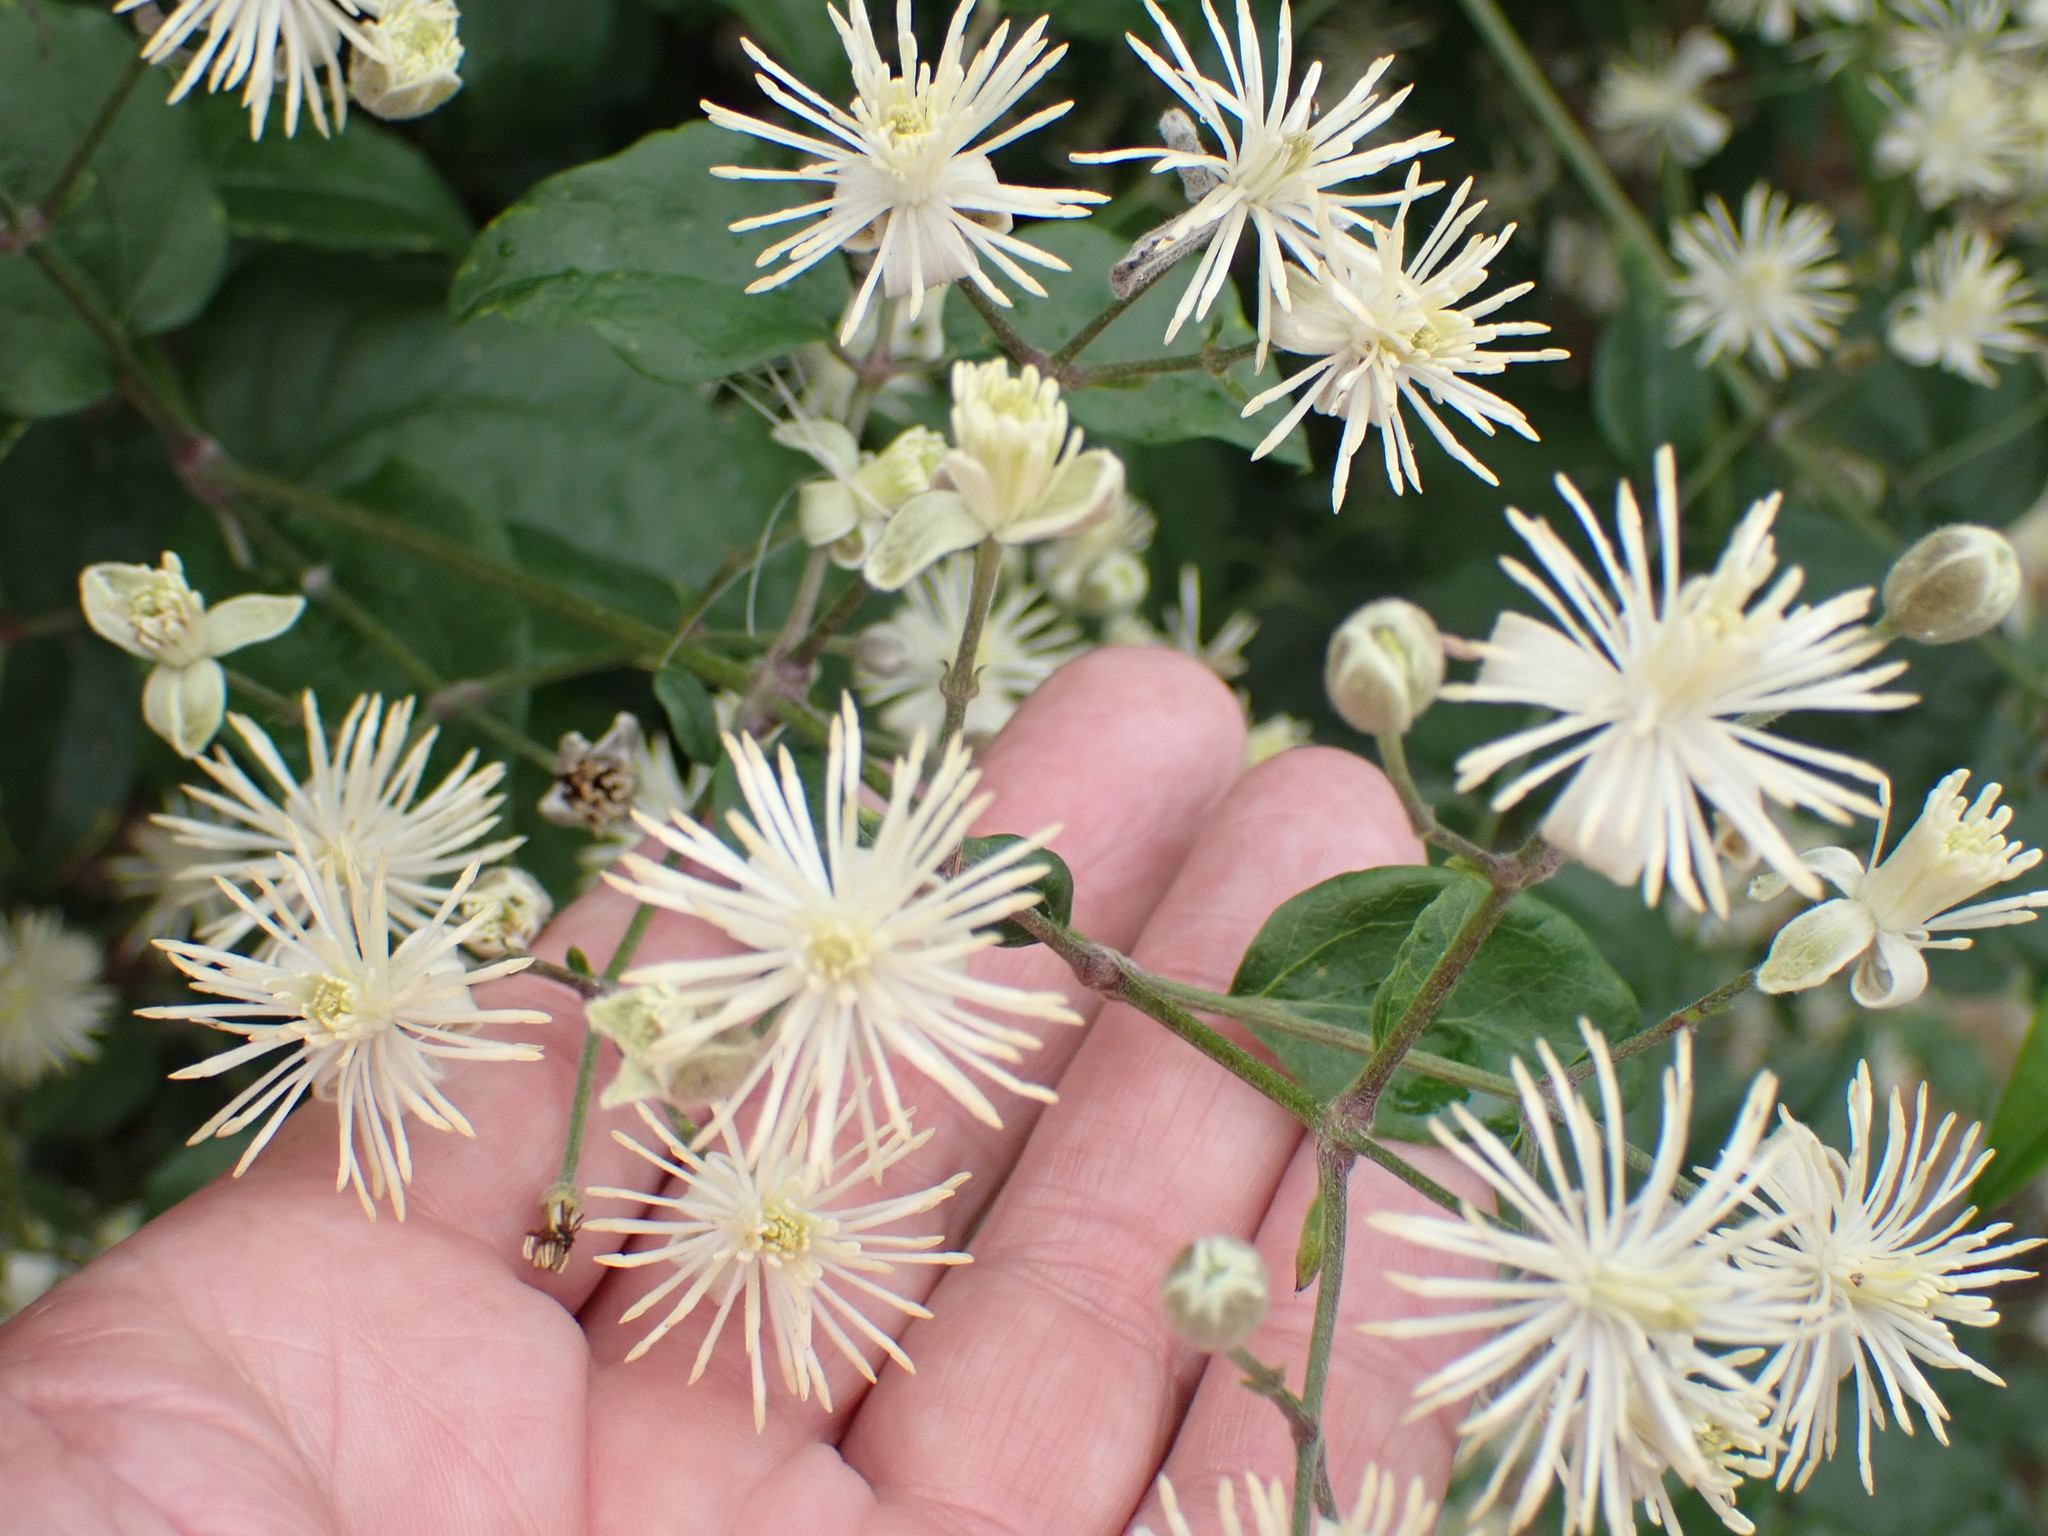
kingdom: Plantae
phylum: Tracheophyta
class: Magnoliopsida
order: Ranunculales
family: Ranunculaceae
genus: Clematis
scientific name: Clematis vitalba
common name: Evergreen clematis
